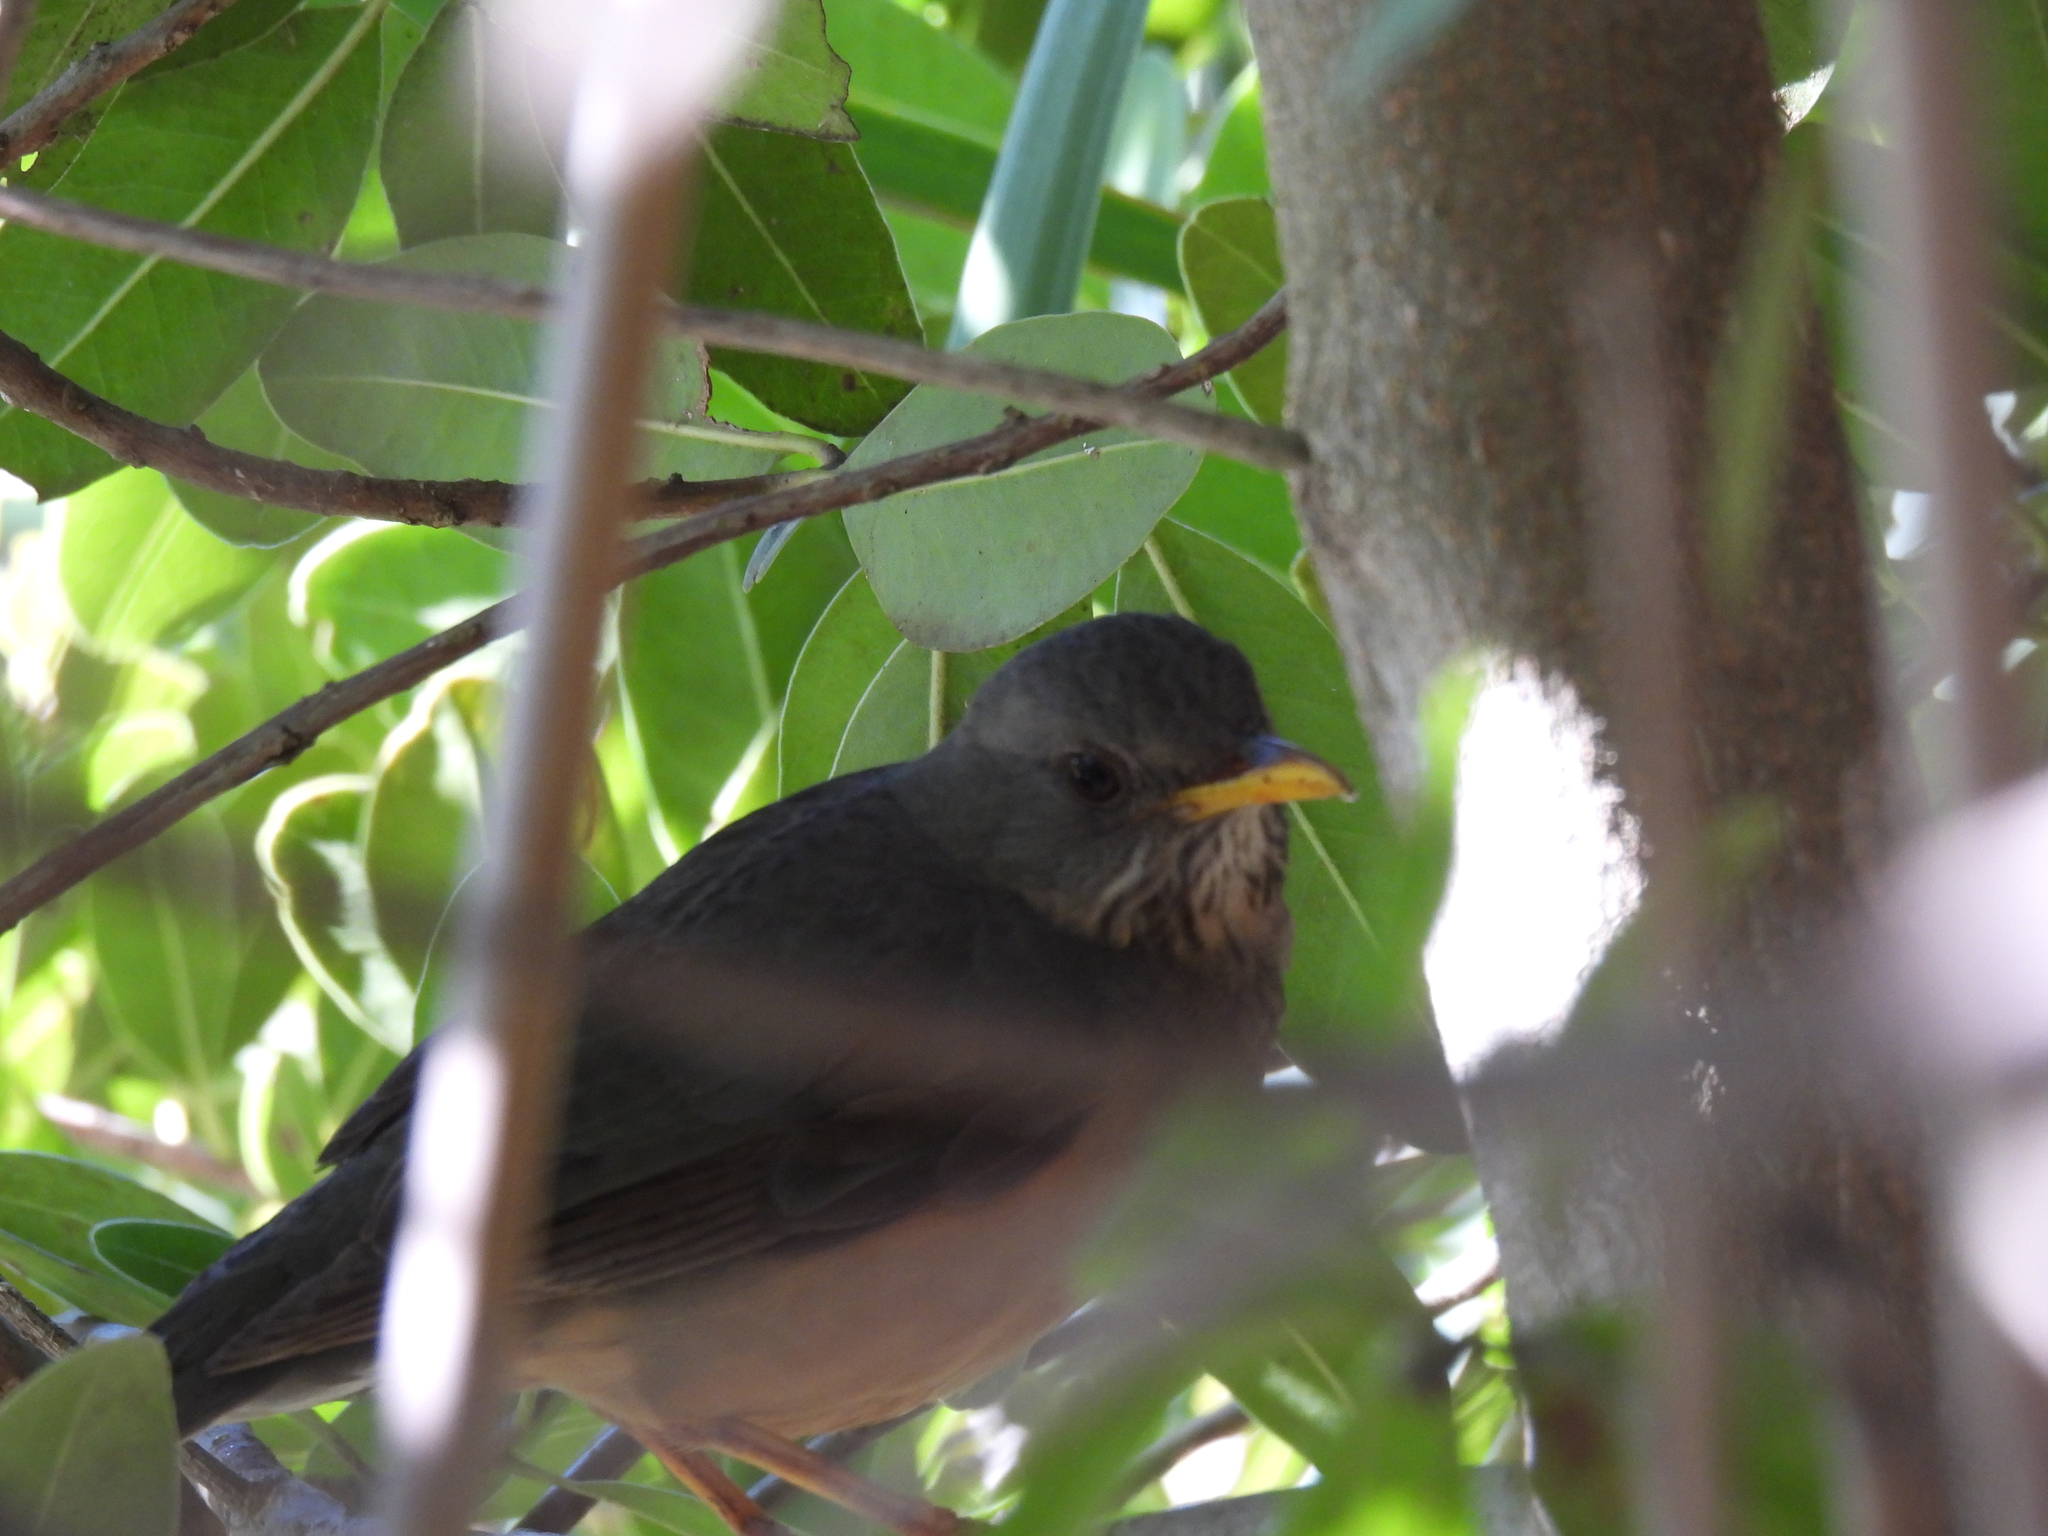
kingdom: Animalia
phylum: Chordata
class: Aves
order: Passeriformes
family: Turdidae
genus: Turdus
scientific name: Turdus olivaceus
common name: Olive thrush
